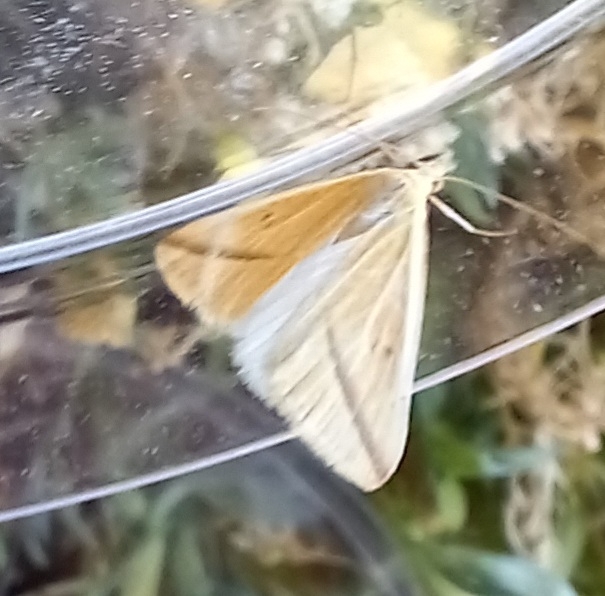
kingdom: Animalia
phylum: Arthropoda
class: Insecta
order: Lepidoptera
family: Geometridae
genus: Rhodometra
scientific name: Rhodometra sacraria
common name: Vestal
